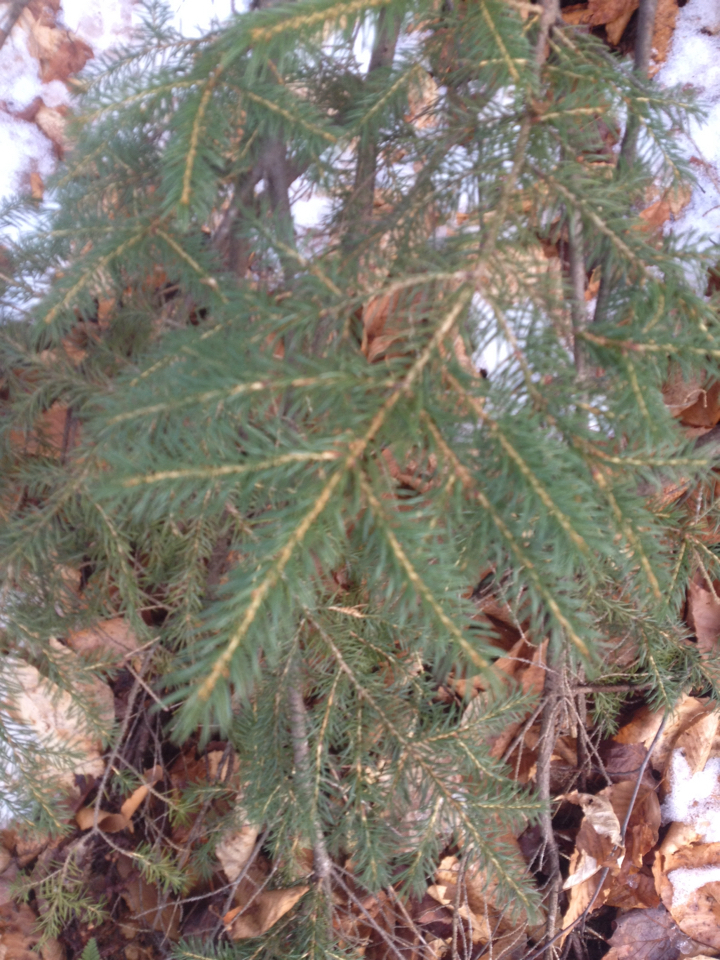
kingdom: Plantae
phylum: Tracheophyta
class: Pinopsida
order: Pinales
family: Pinaceae
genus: Picea
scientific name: Picea rubens
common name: Red spruce
